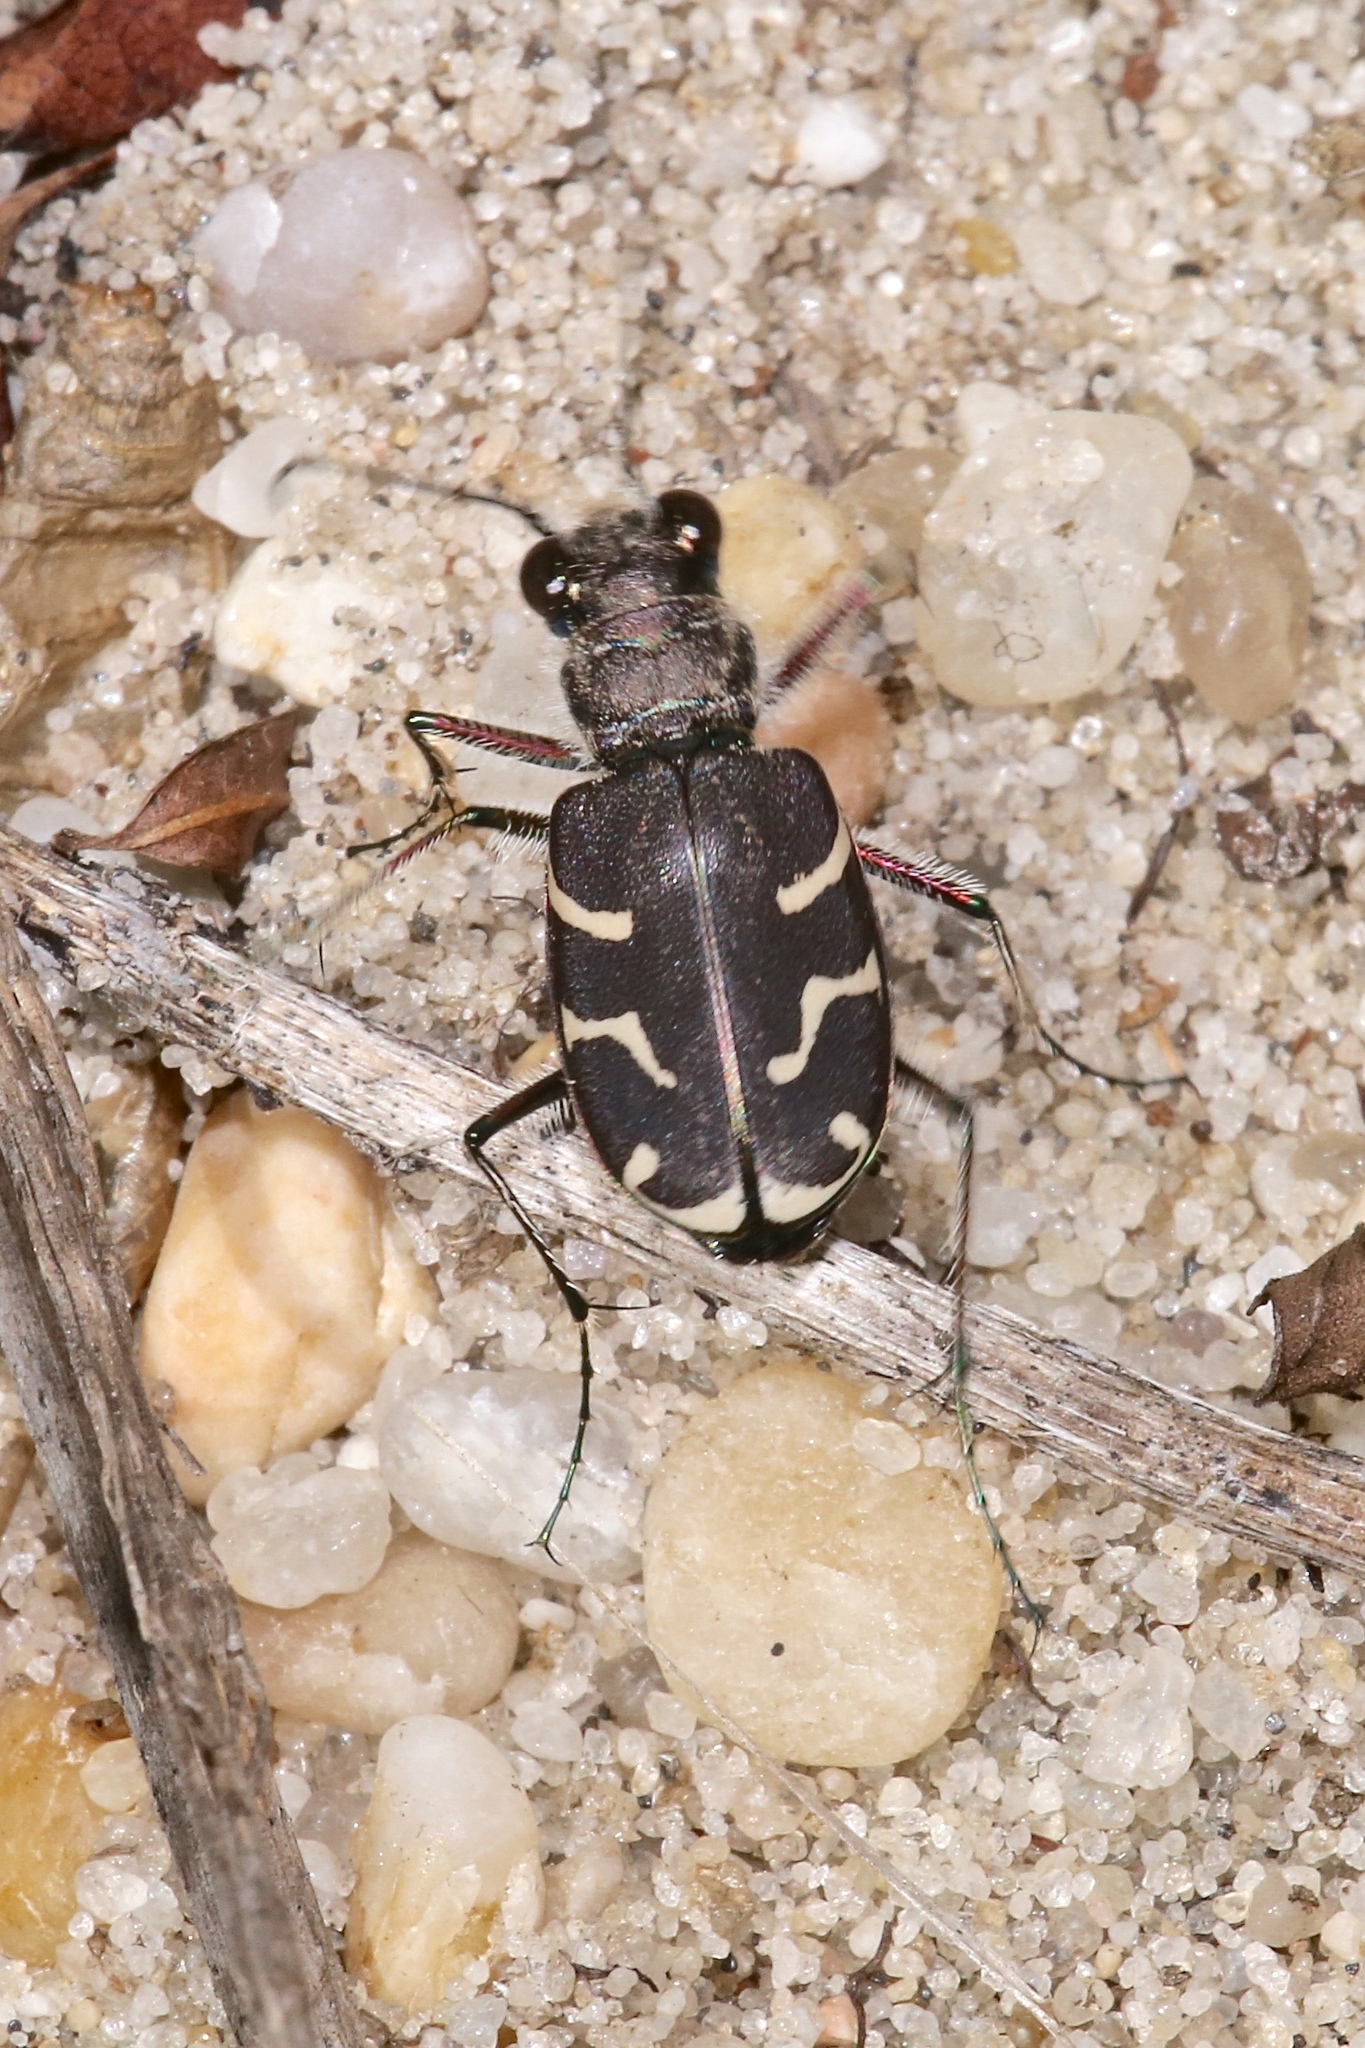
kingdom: Animalia
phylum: Arthropoda
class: Insecta
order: Coleoptera
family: Carabidae
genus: Cicindela
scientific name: Cicindela tranquebarica
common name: Oblique-lined tiger beetle
